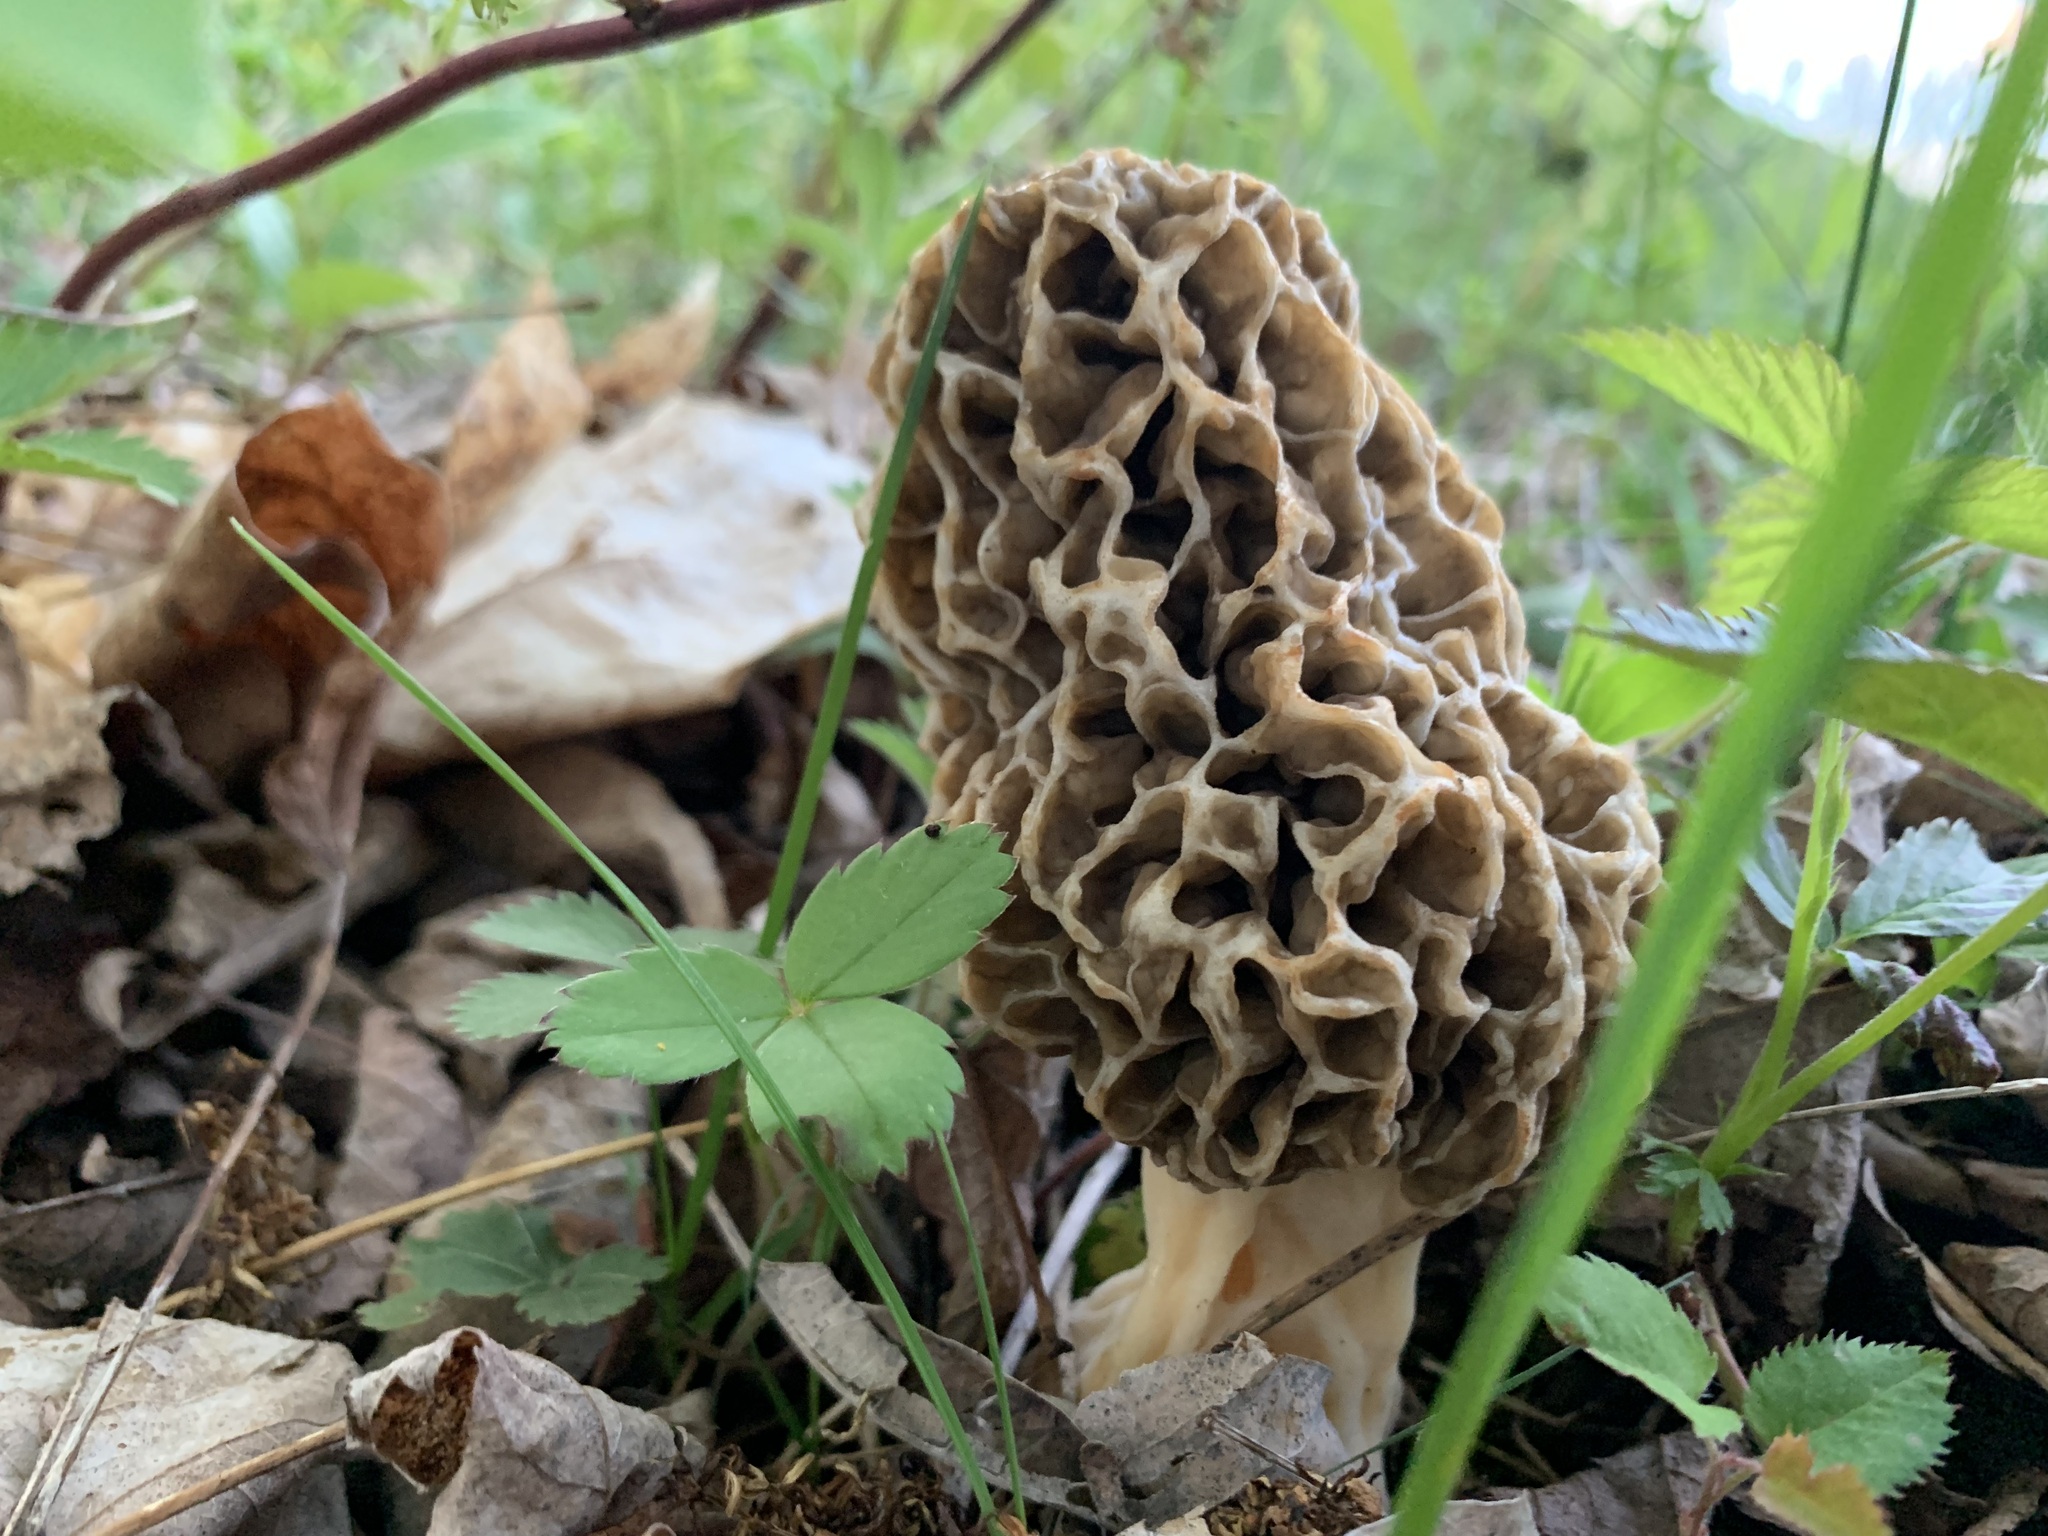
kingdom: Fungi
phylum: Ascomycota
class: Pezizomycetes
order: Pezizales
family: Morchellaceae
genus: Morchella
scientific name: Morchella americana
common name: White morel
